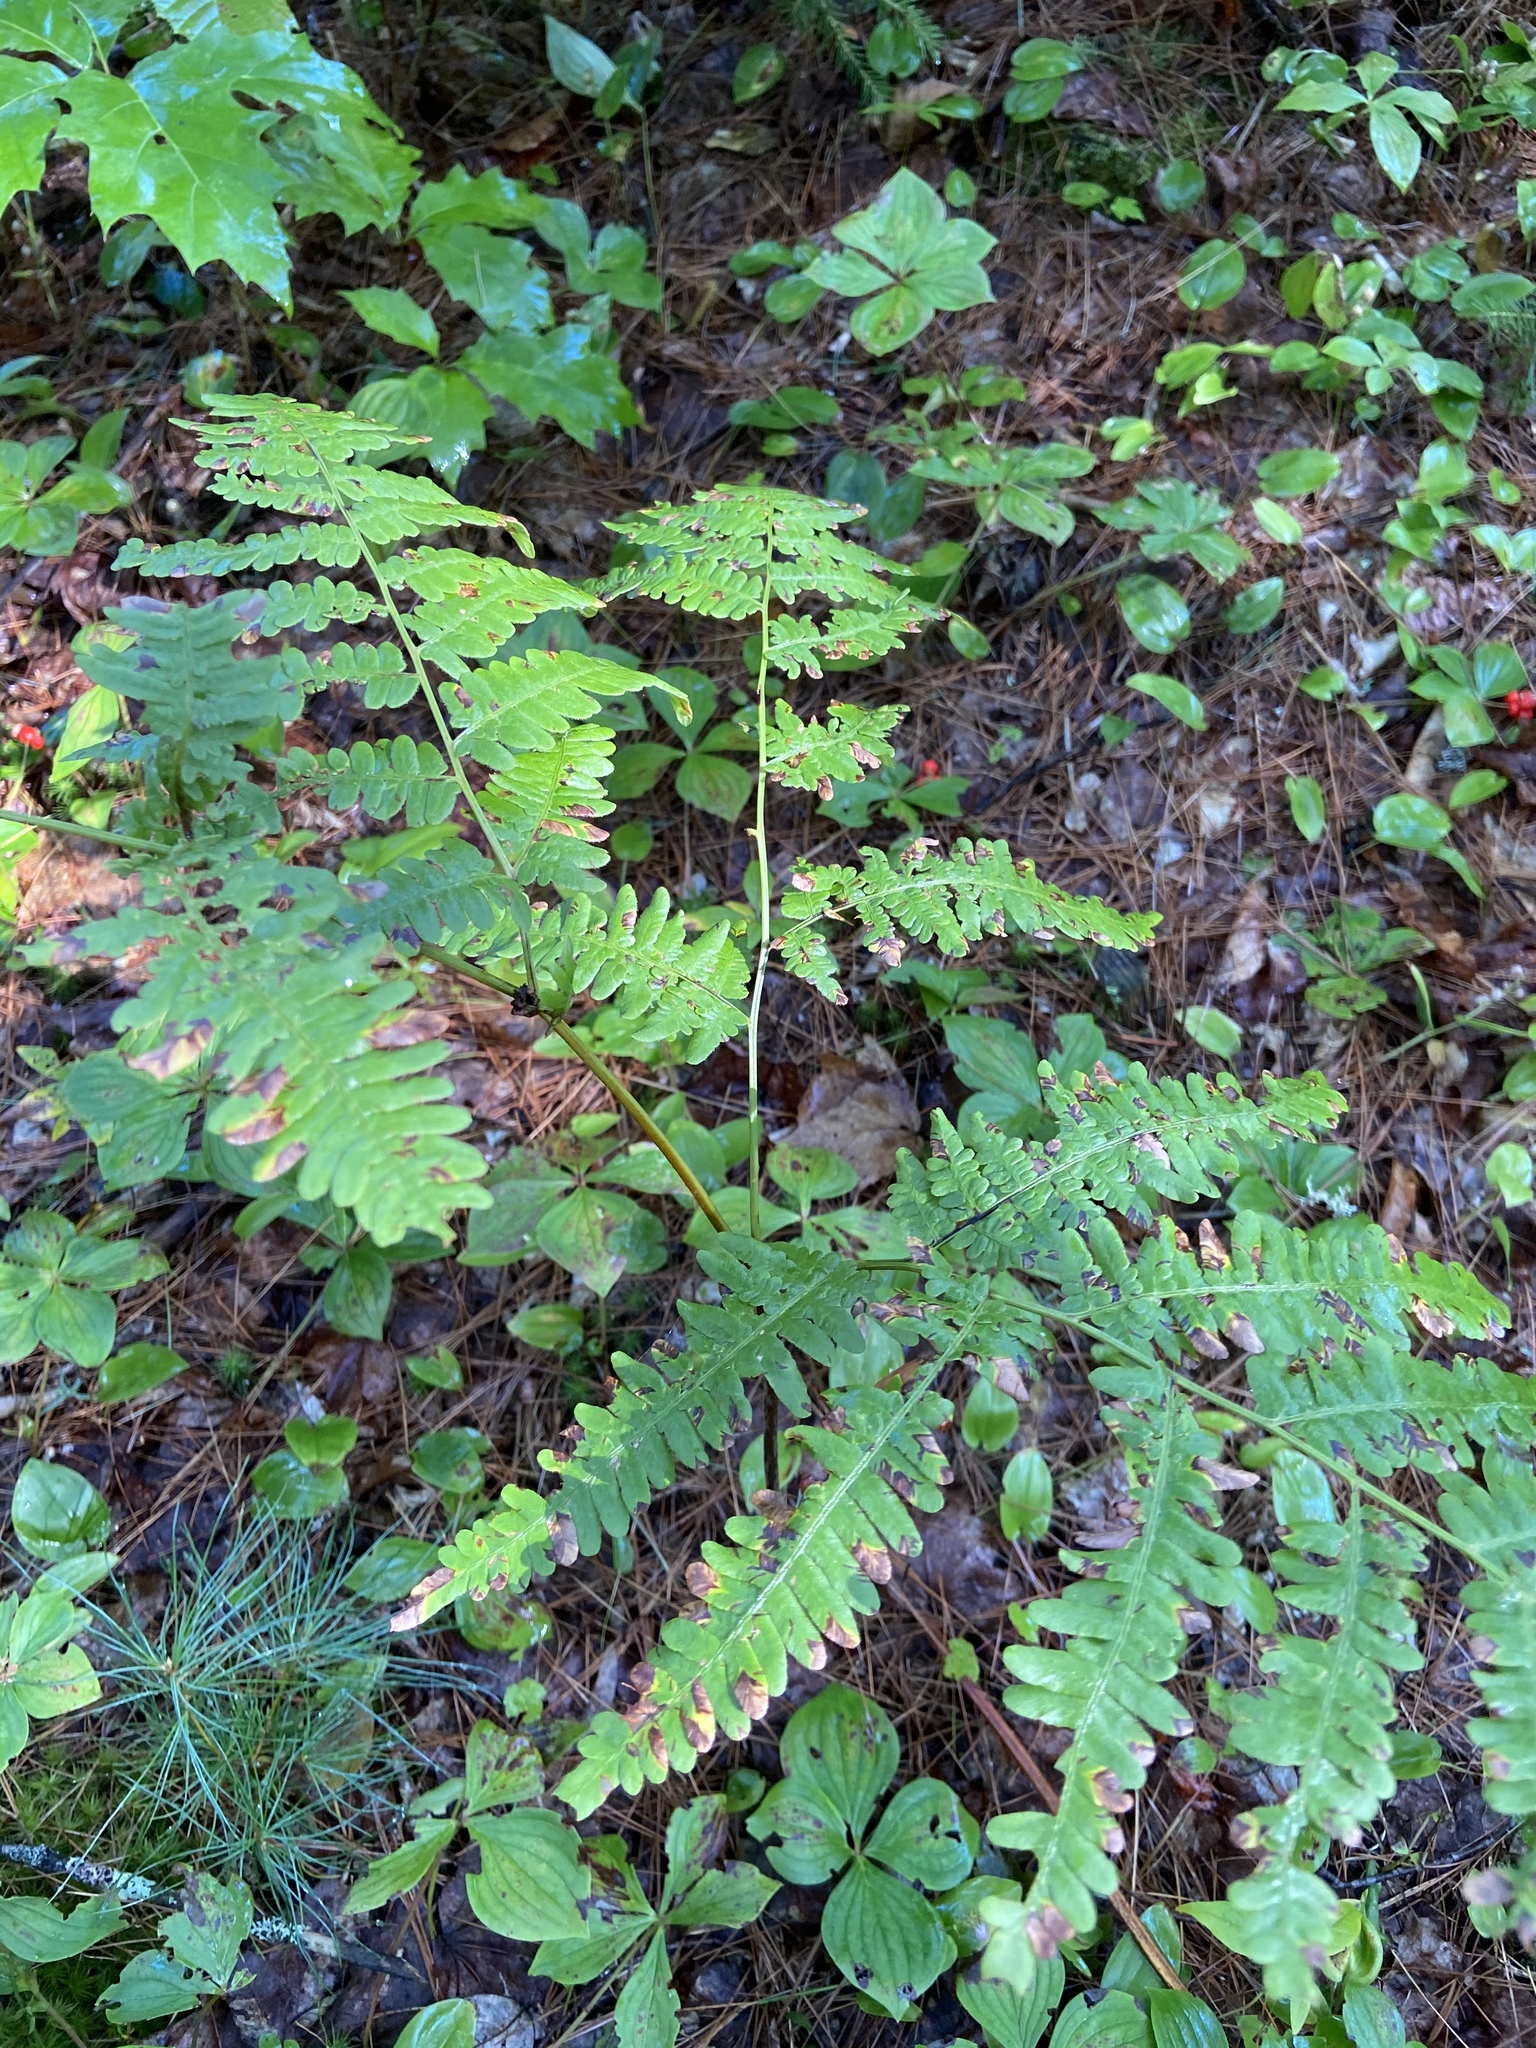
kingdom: Plantae
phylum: Tracheophyta
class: Polypodiopsida
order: Polypodiales
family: Dennstaedtiaceae
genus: Pteridium
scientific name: Pteridium aquilinum
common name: Bracken
